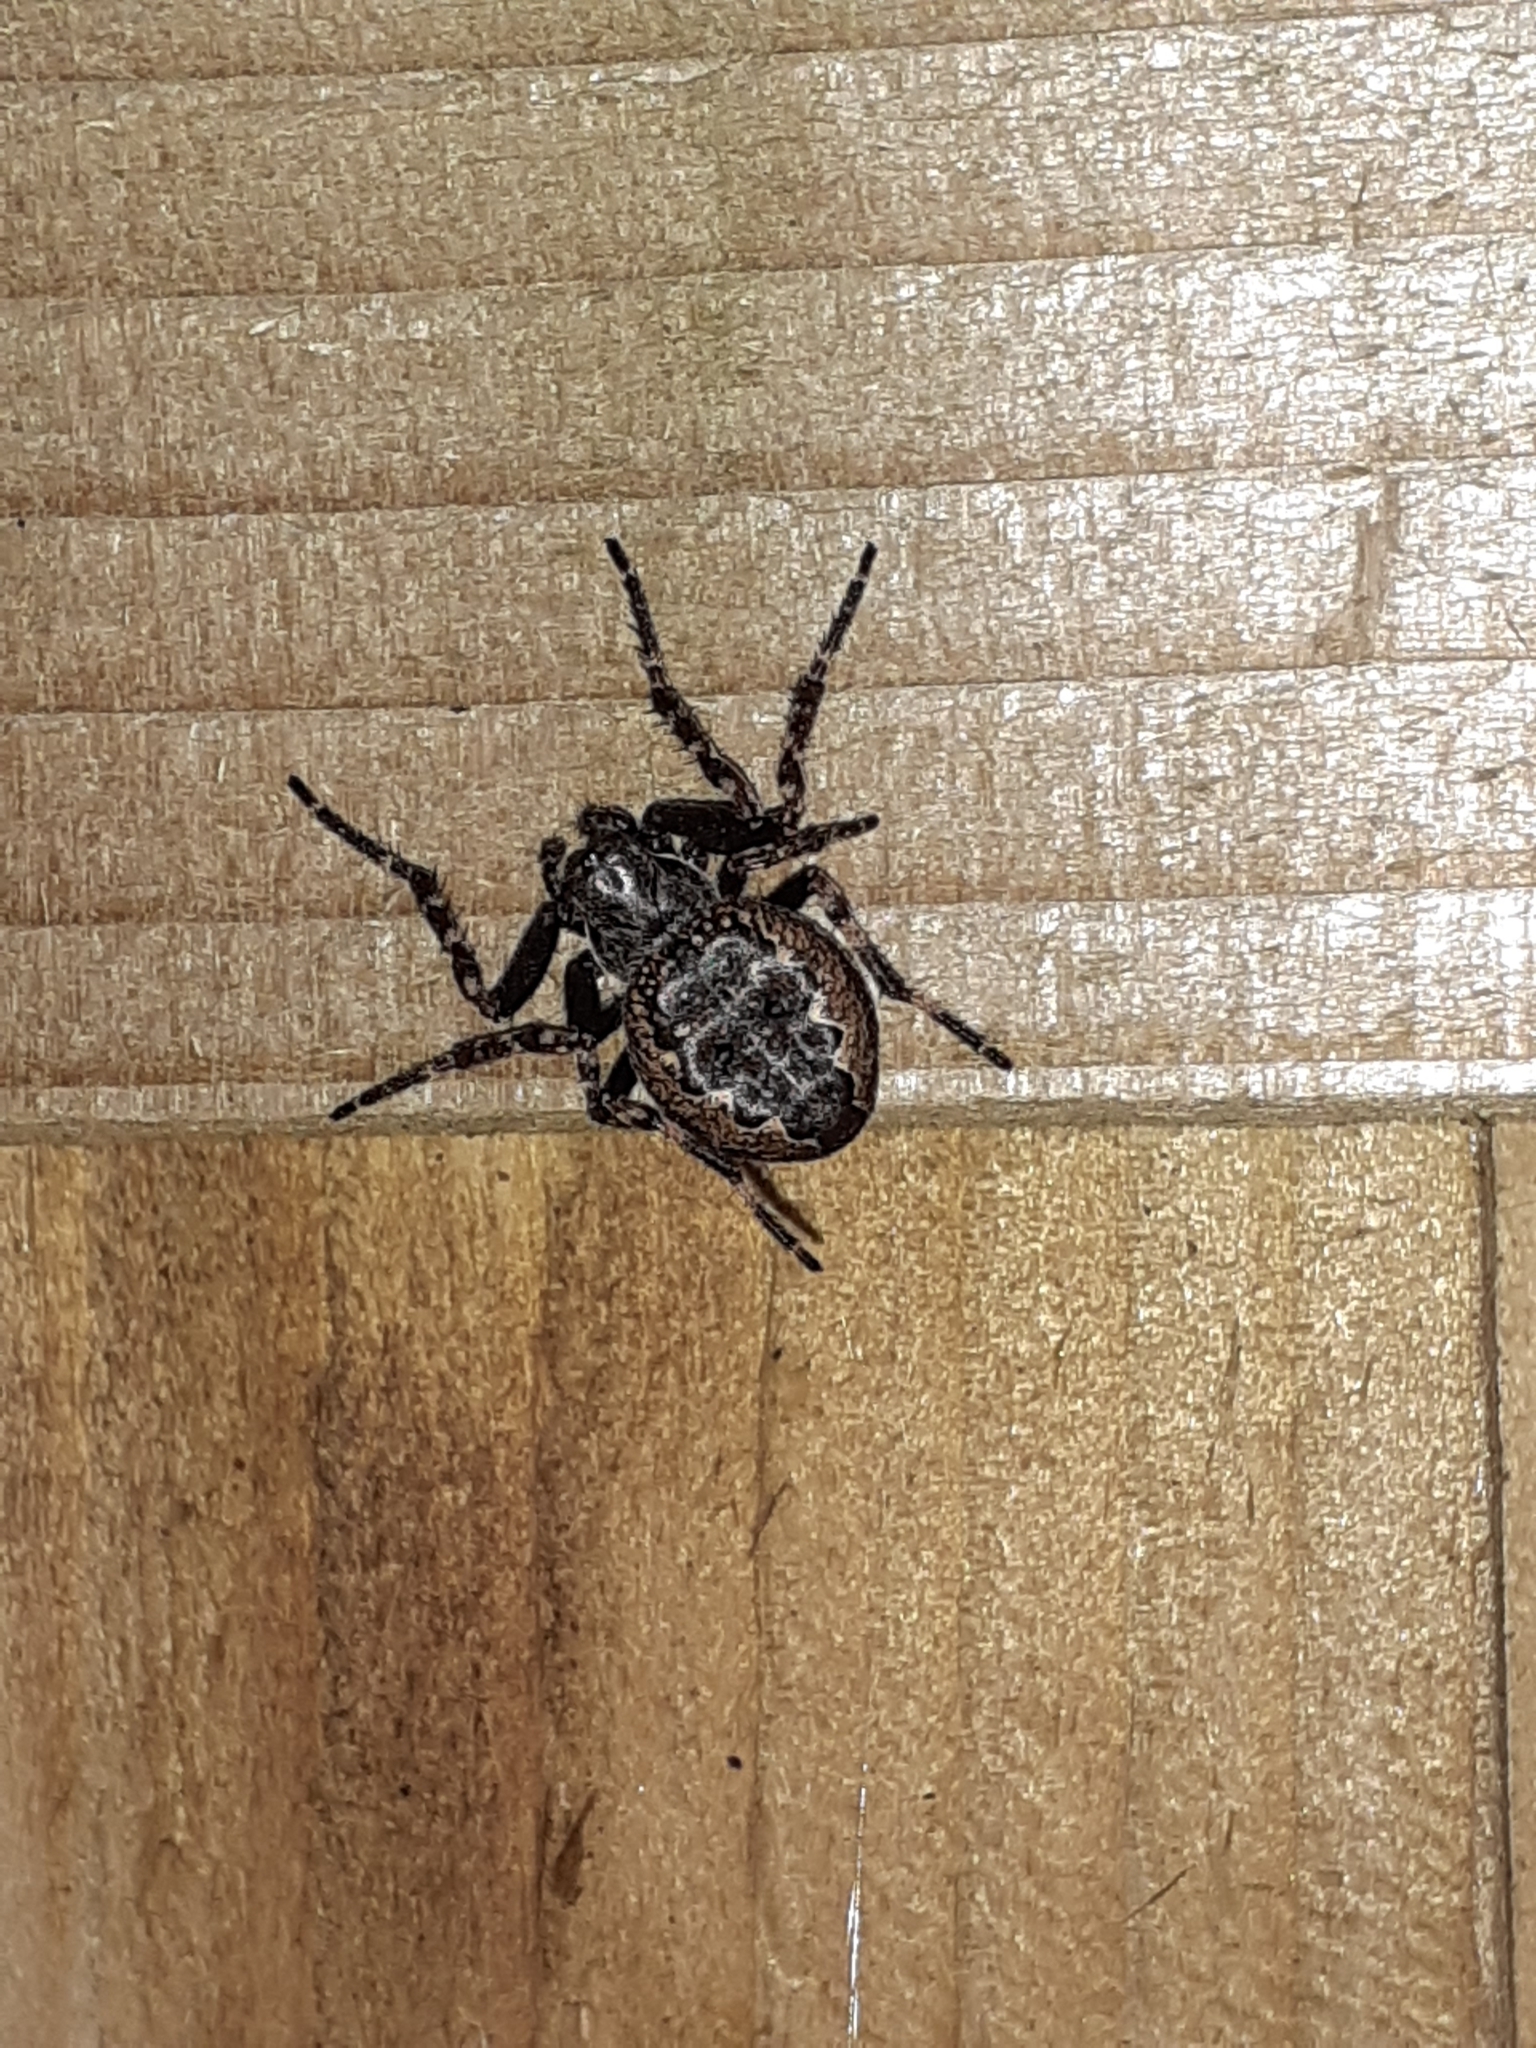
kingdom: Animalia
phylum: Arthropoda
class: Arachnida
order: Araneae
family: Araneidae
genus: Nuctenea
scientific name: Nuctenea umbratica
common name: Toad spider
